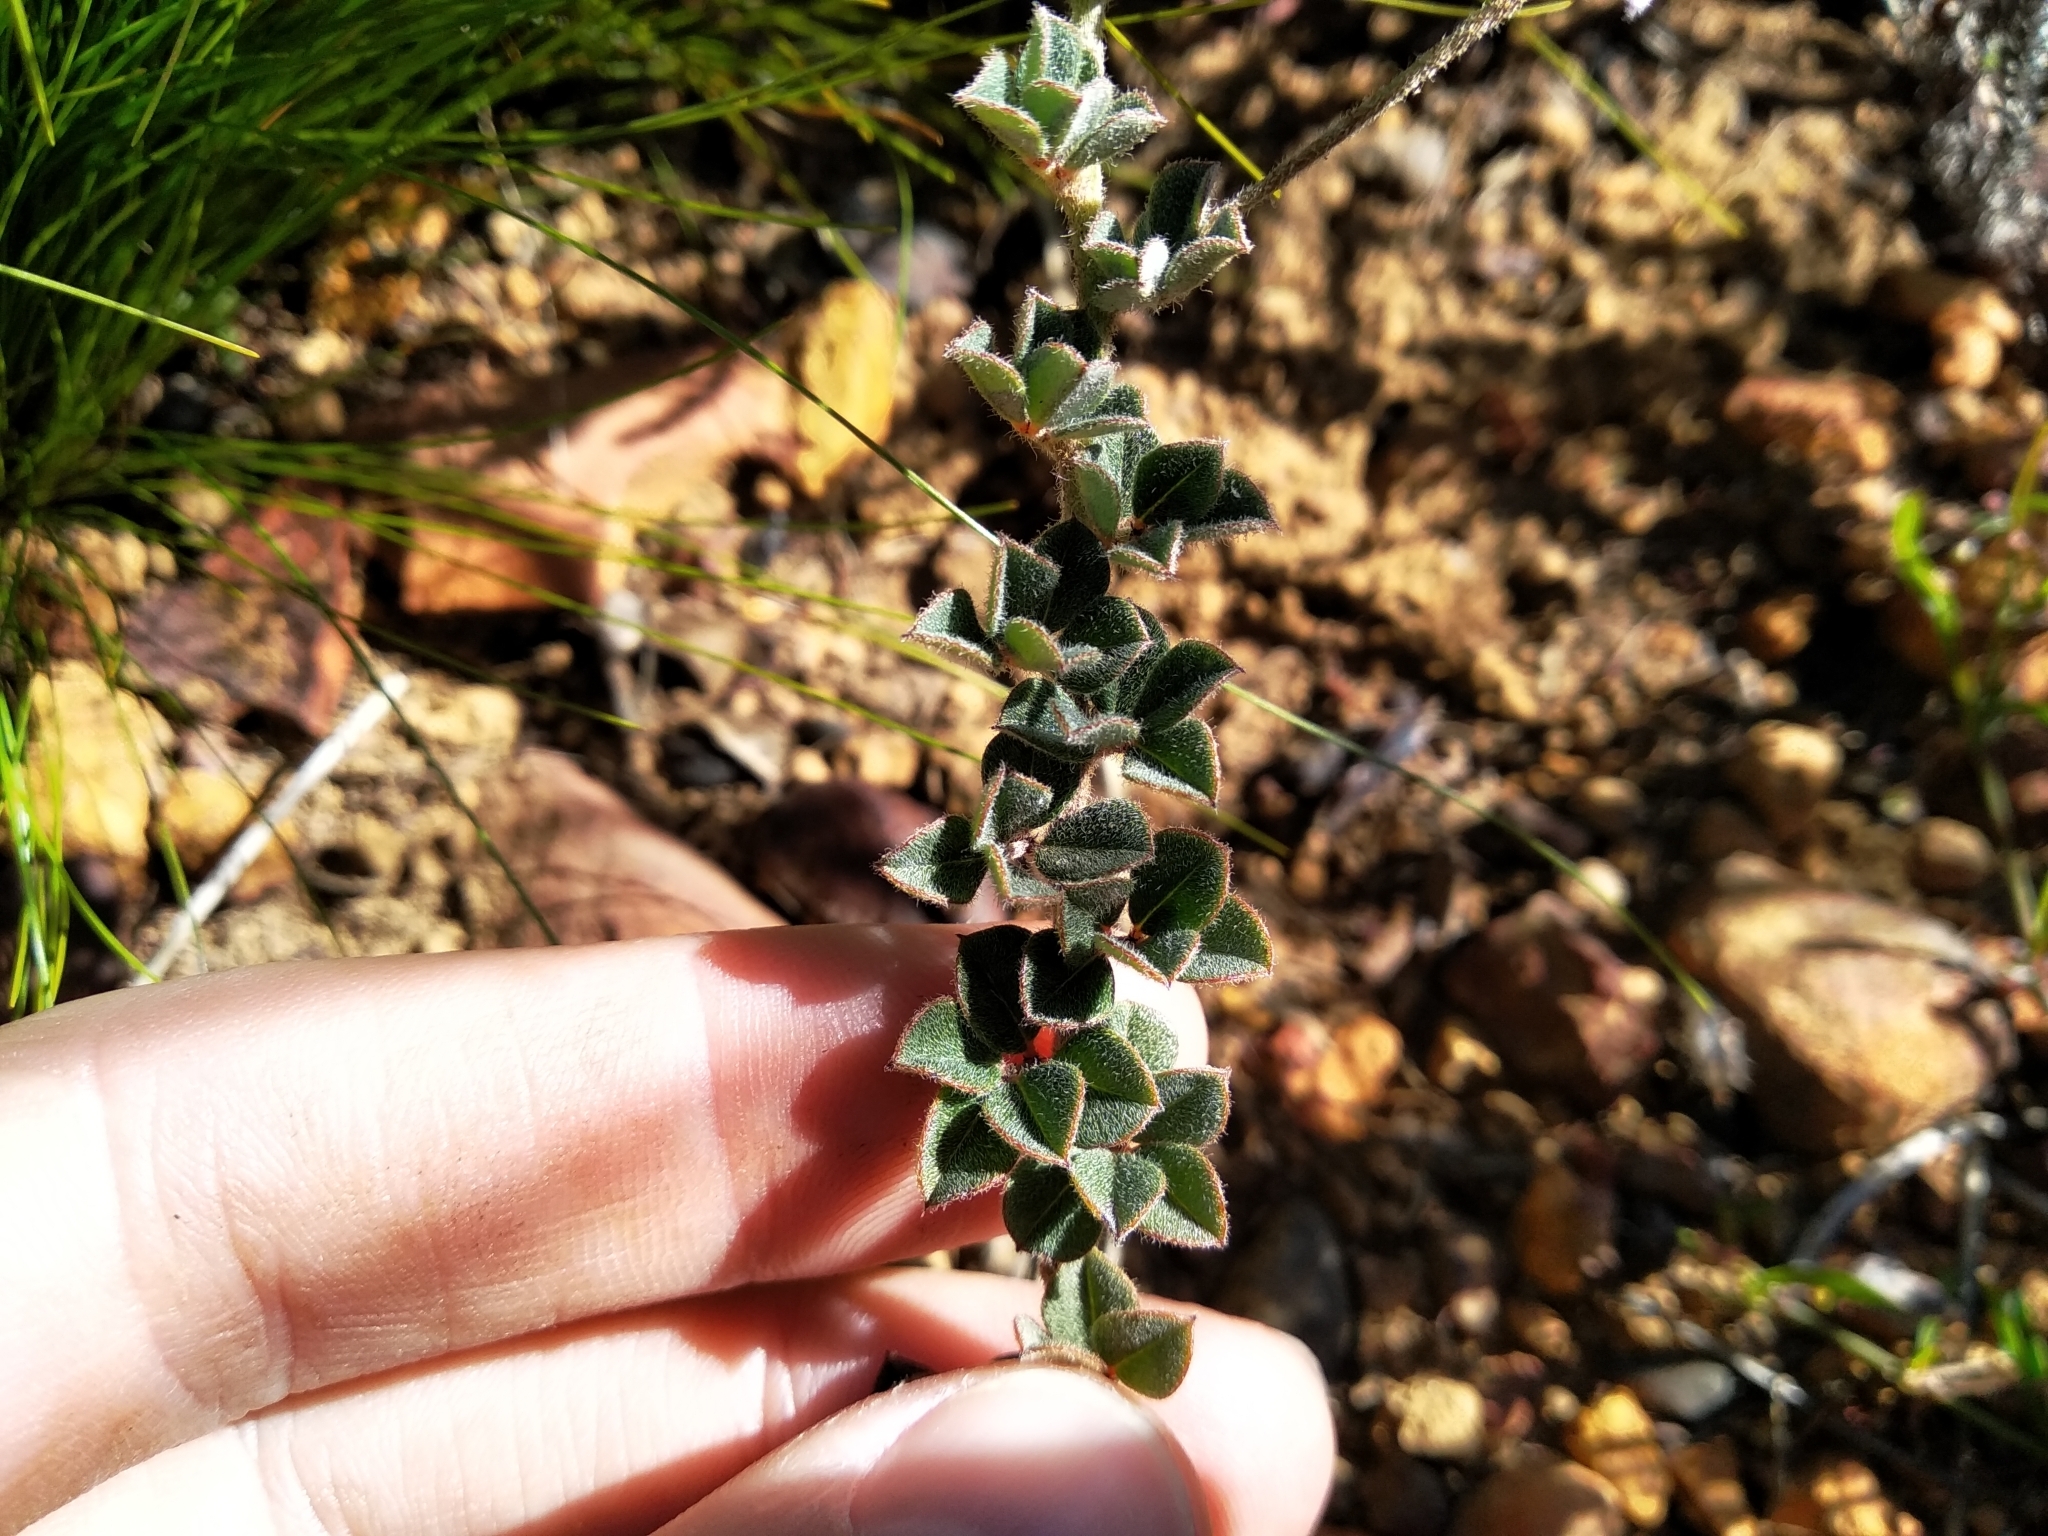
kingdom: Plantae
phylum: Tracheophyta
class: Magnoliopsida
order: Fabales
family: Fabaceae
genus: Indigofera
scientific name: Indigofera mauritanica
